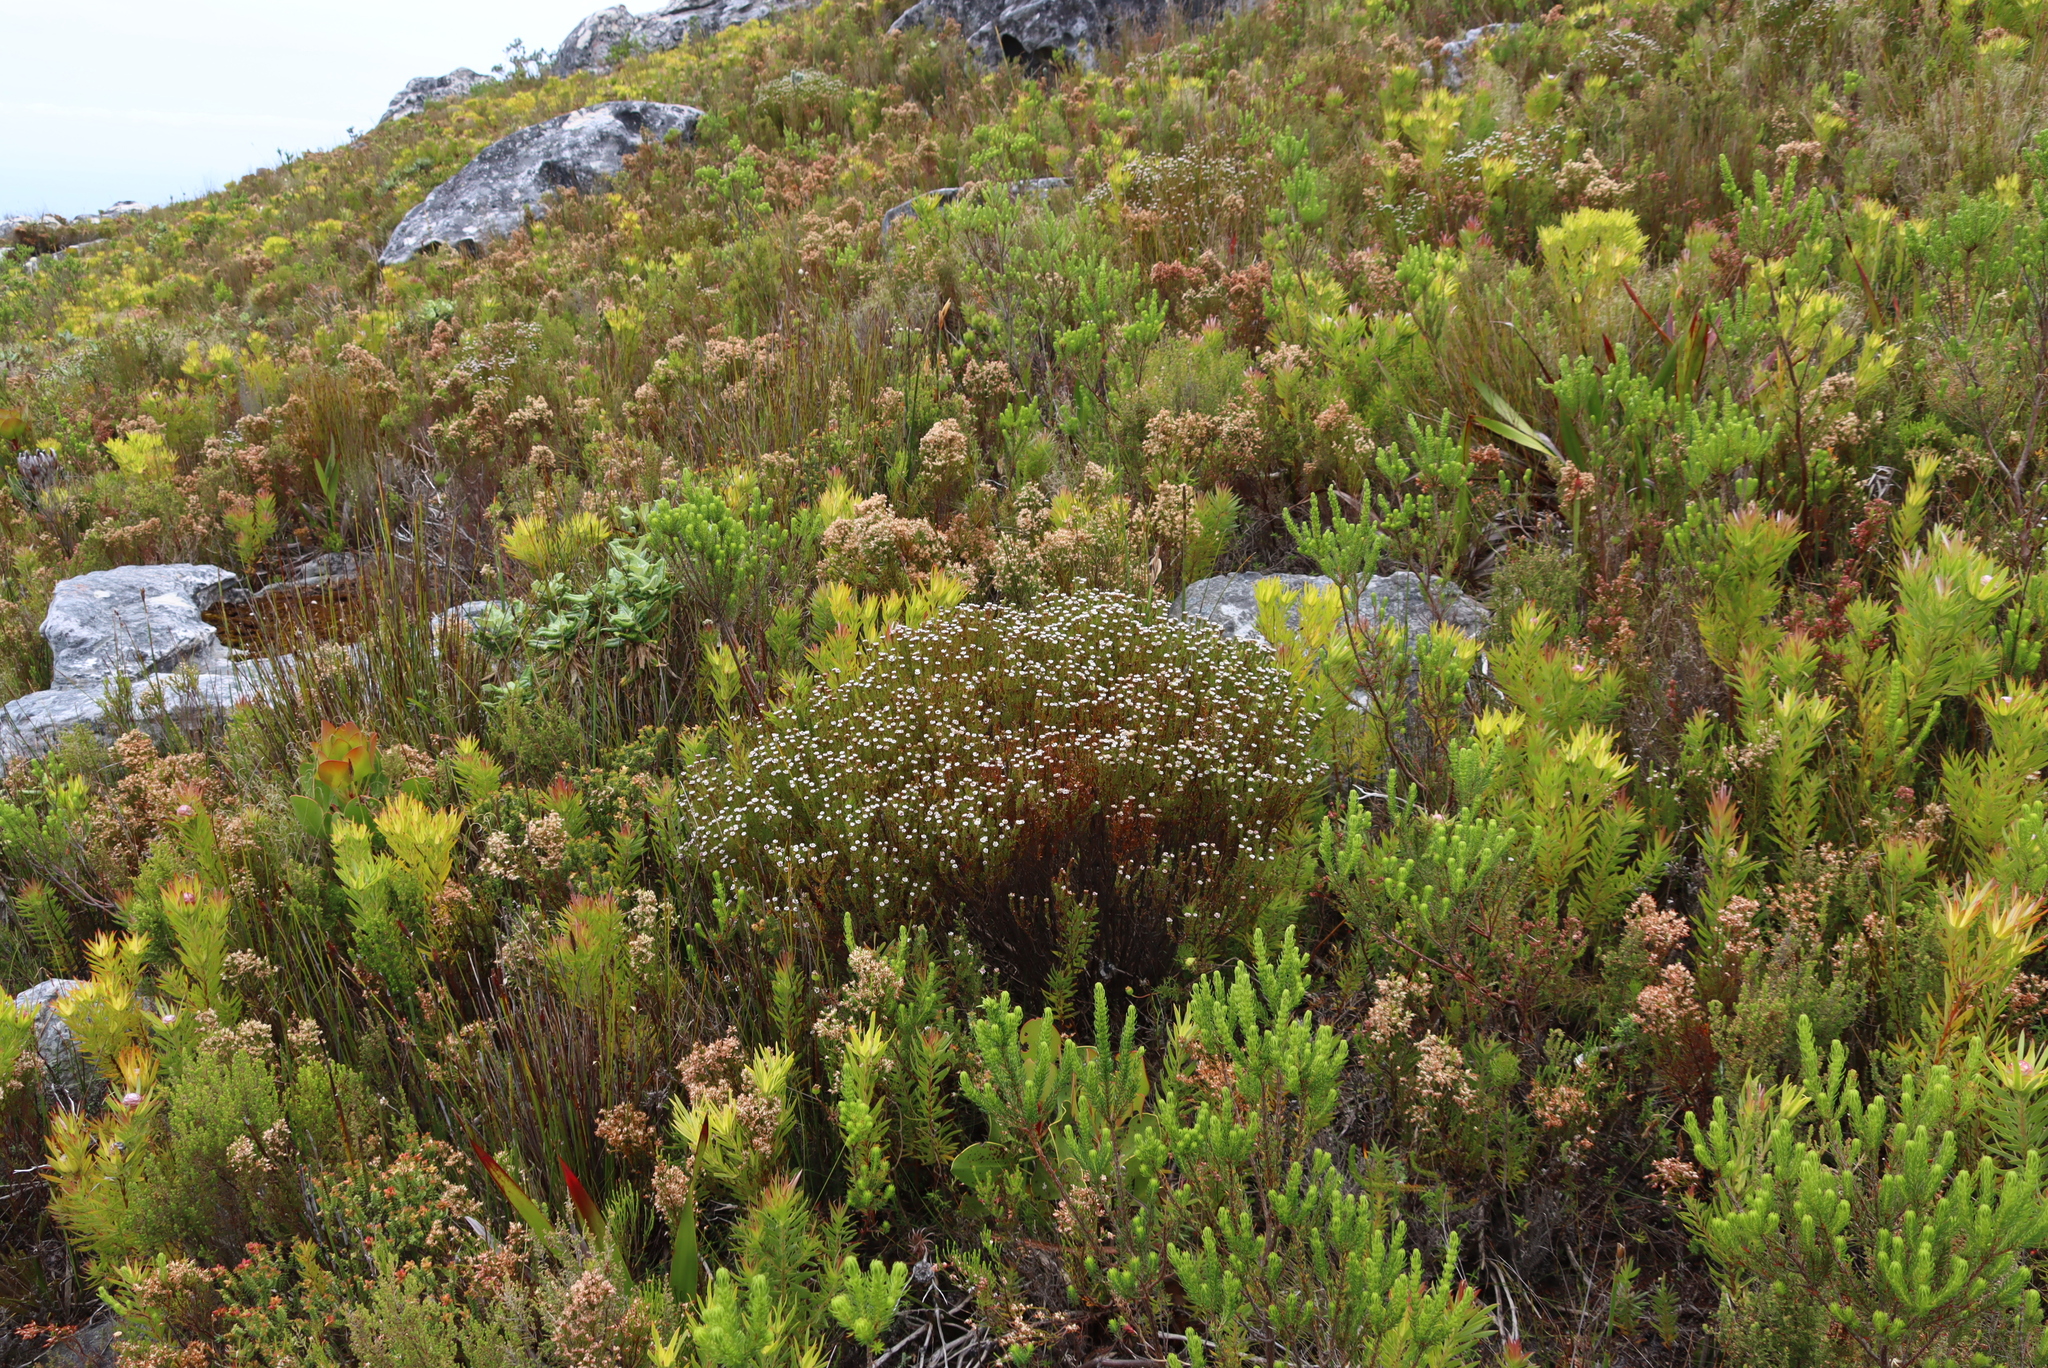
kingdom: Plantae
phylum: Tracheophyta
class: Magnoliopsida
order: Bruniales
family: Bruniaceae
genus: Staavia
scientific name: Staavia radiata
